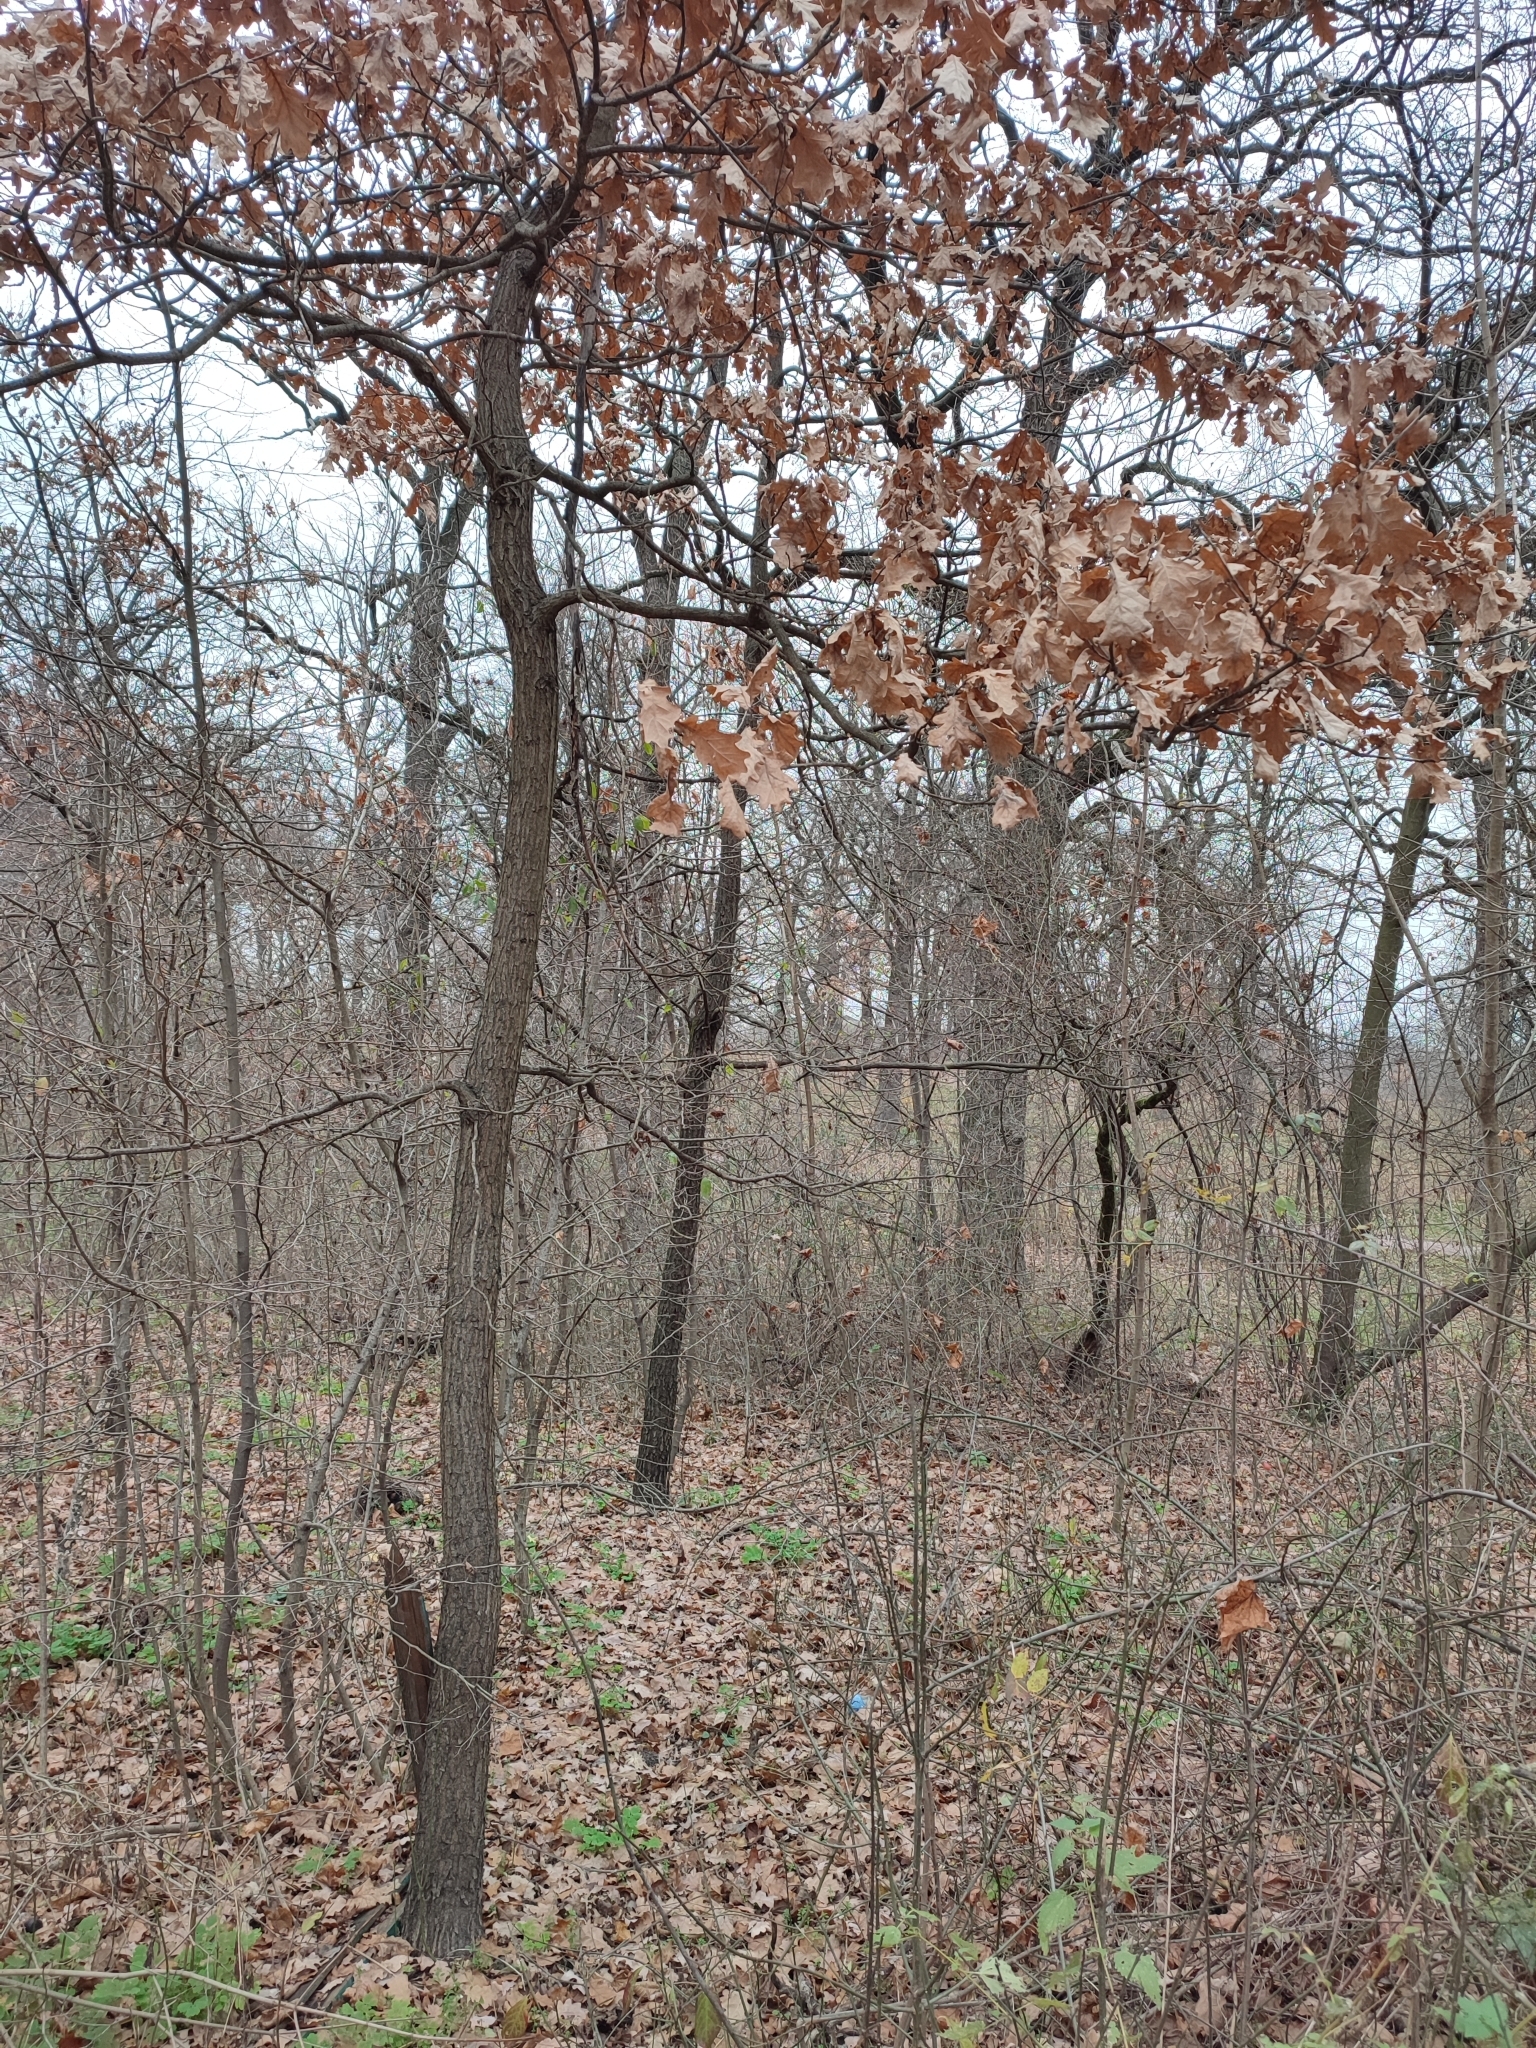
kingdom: Plantae
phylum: Tracheophyta
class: Magnoliopsida
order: Fagales
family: Fagaceae
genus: Quercus
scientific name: Quercus robur
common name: Pedunculate oak
